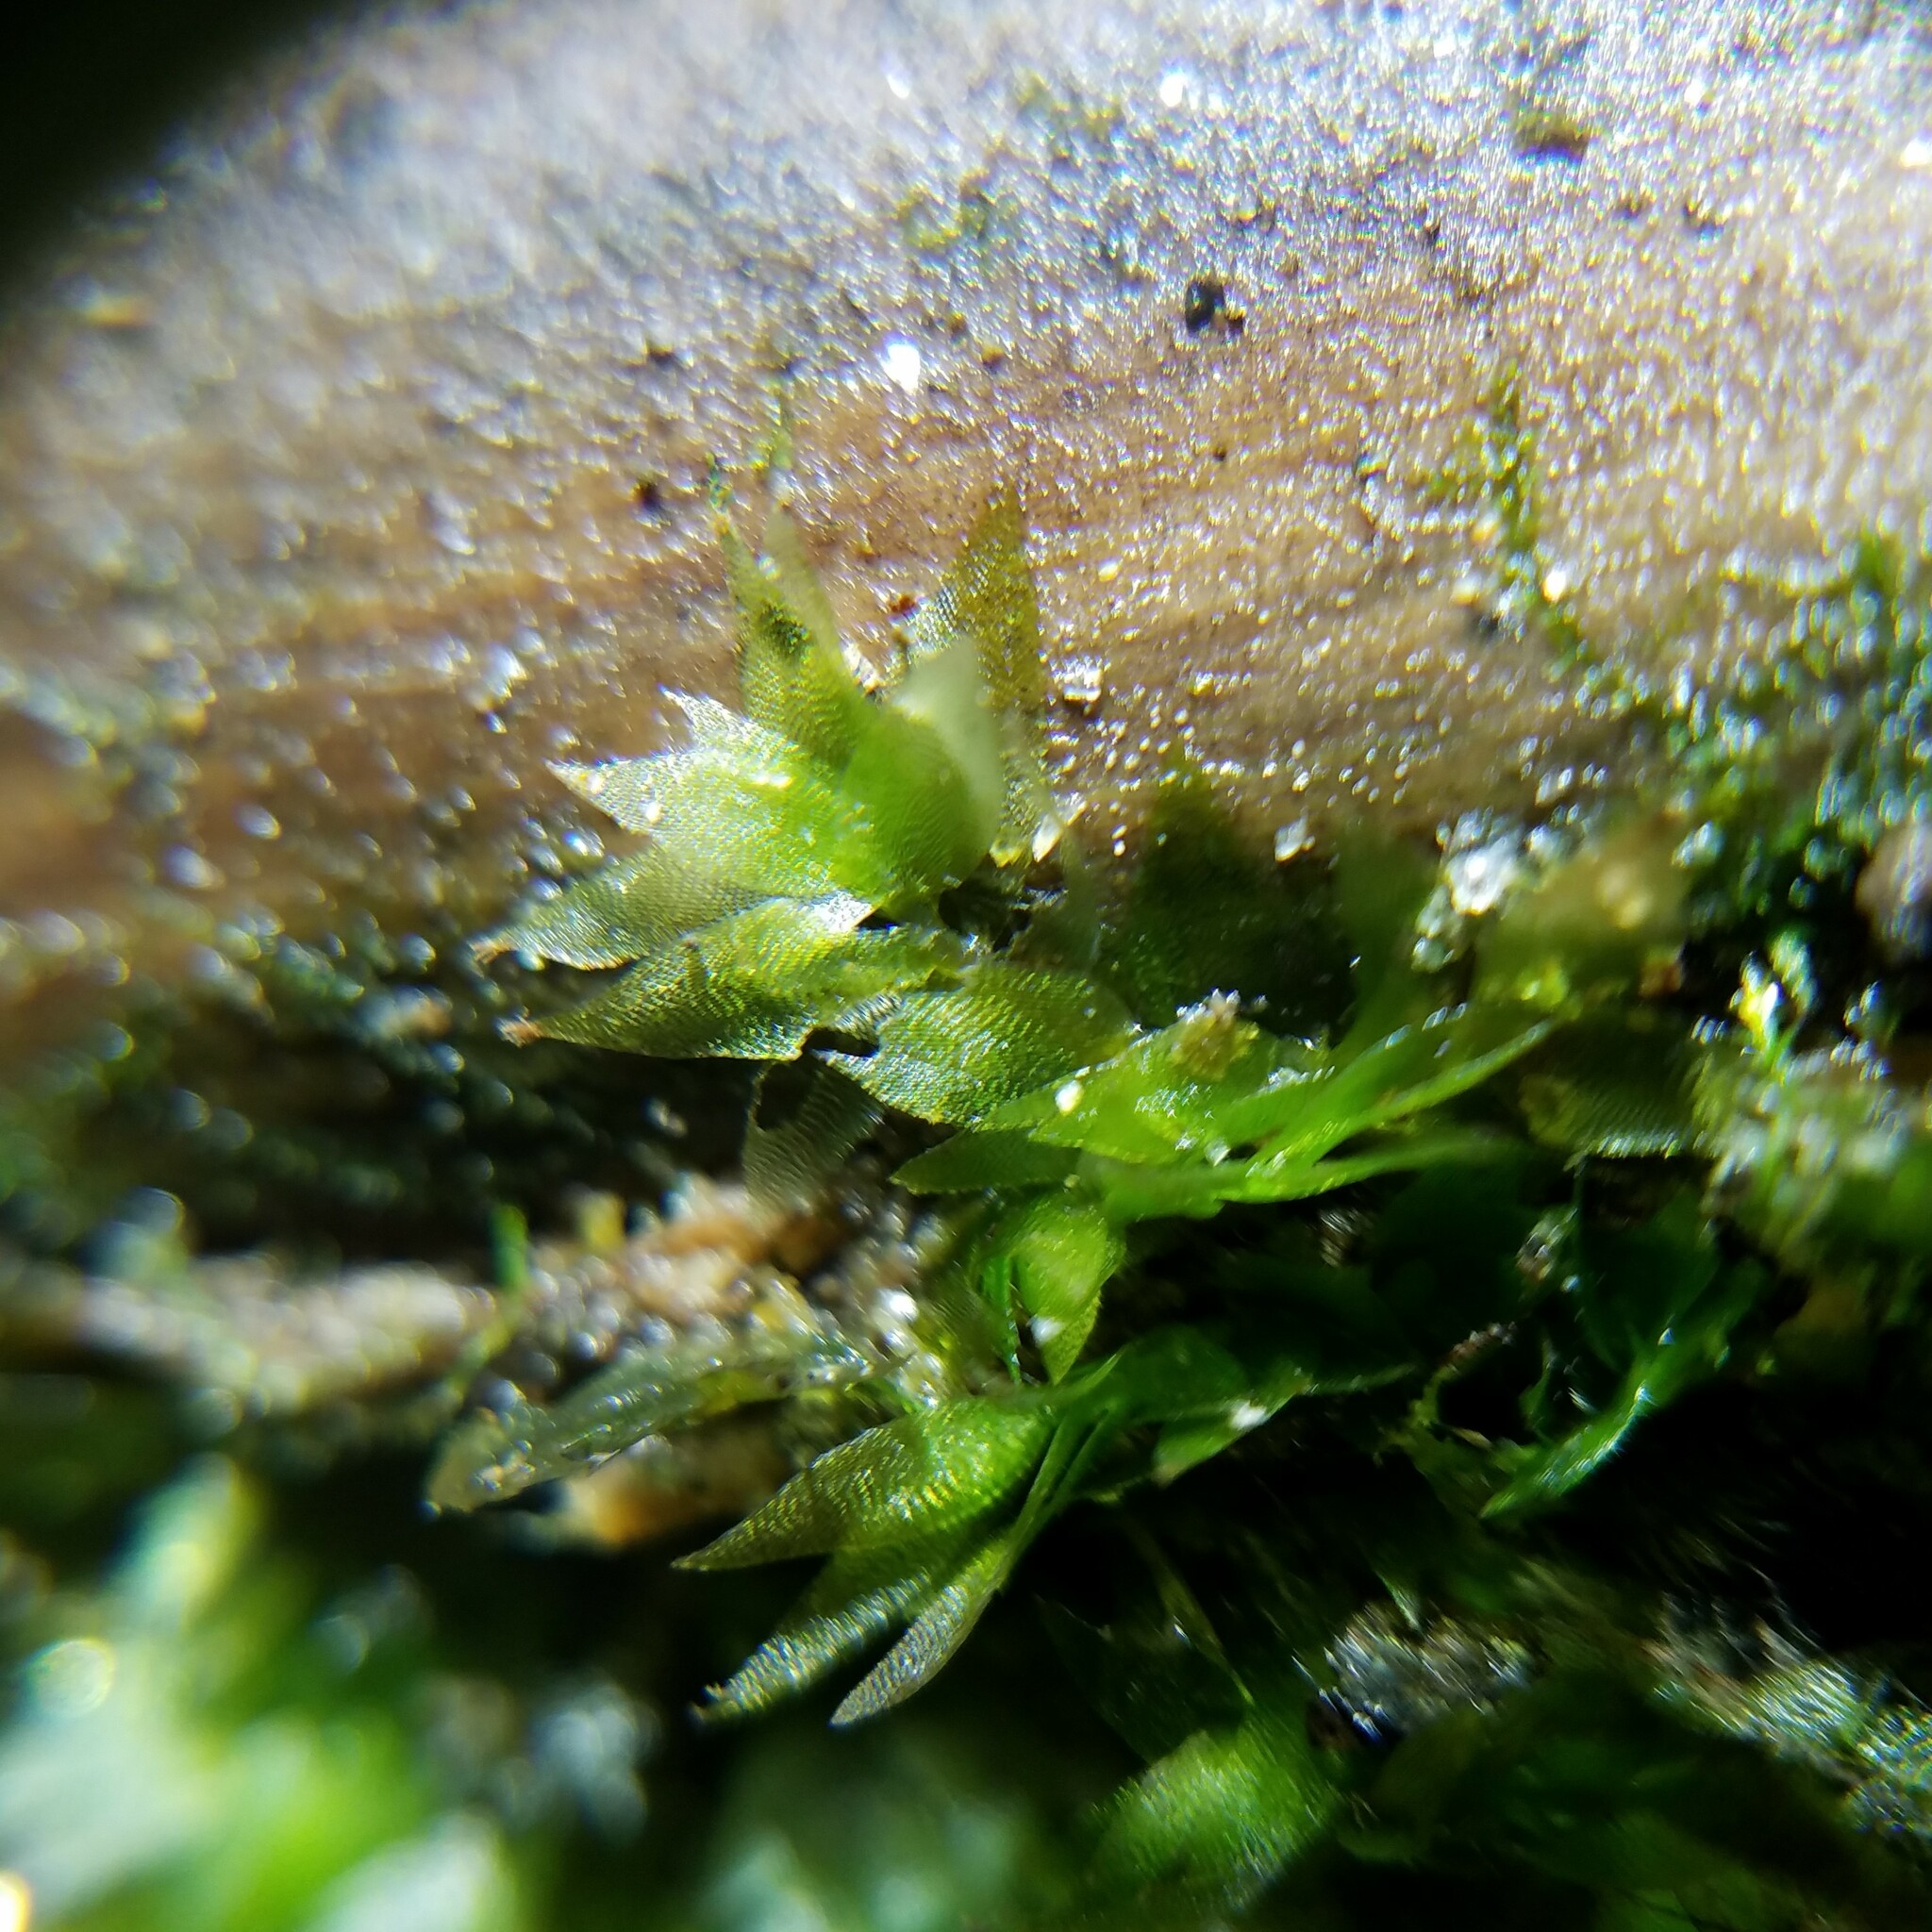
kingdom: Plantae
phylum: Bryophyta
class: Bryopsida
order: Hookeriales
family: Hookeriaceae
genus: Hookeria
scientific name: Hookeria acutifolia
